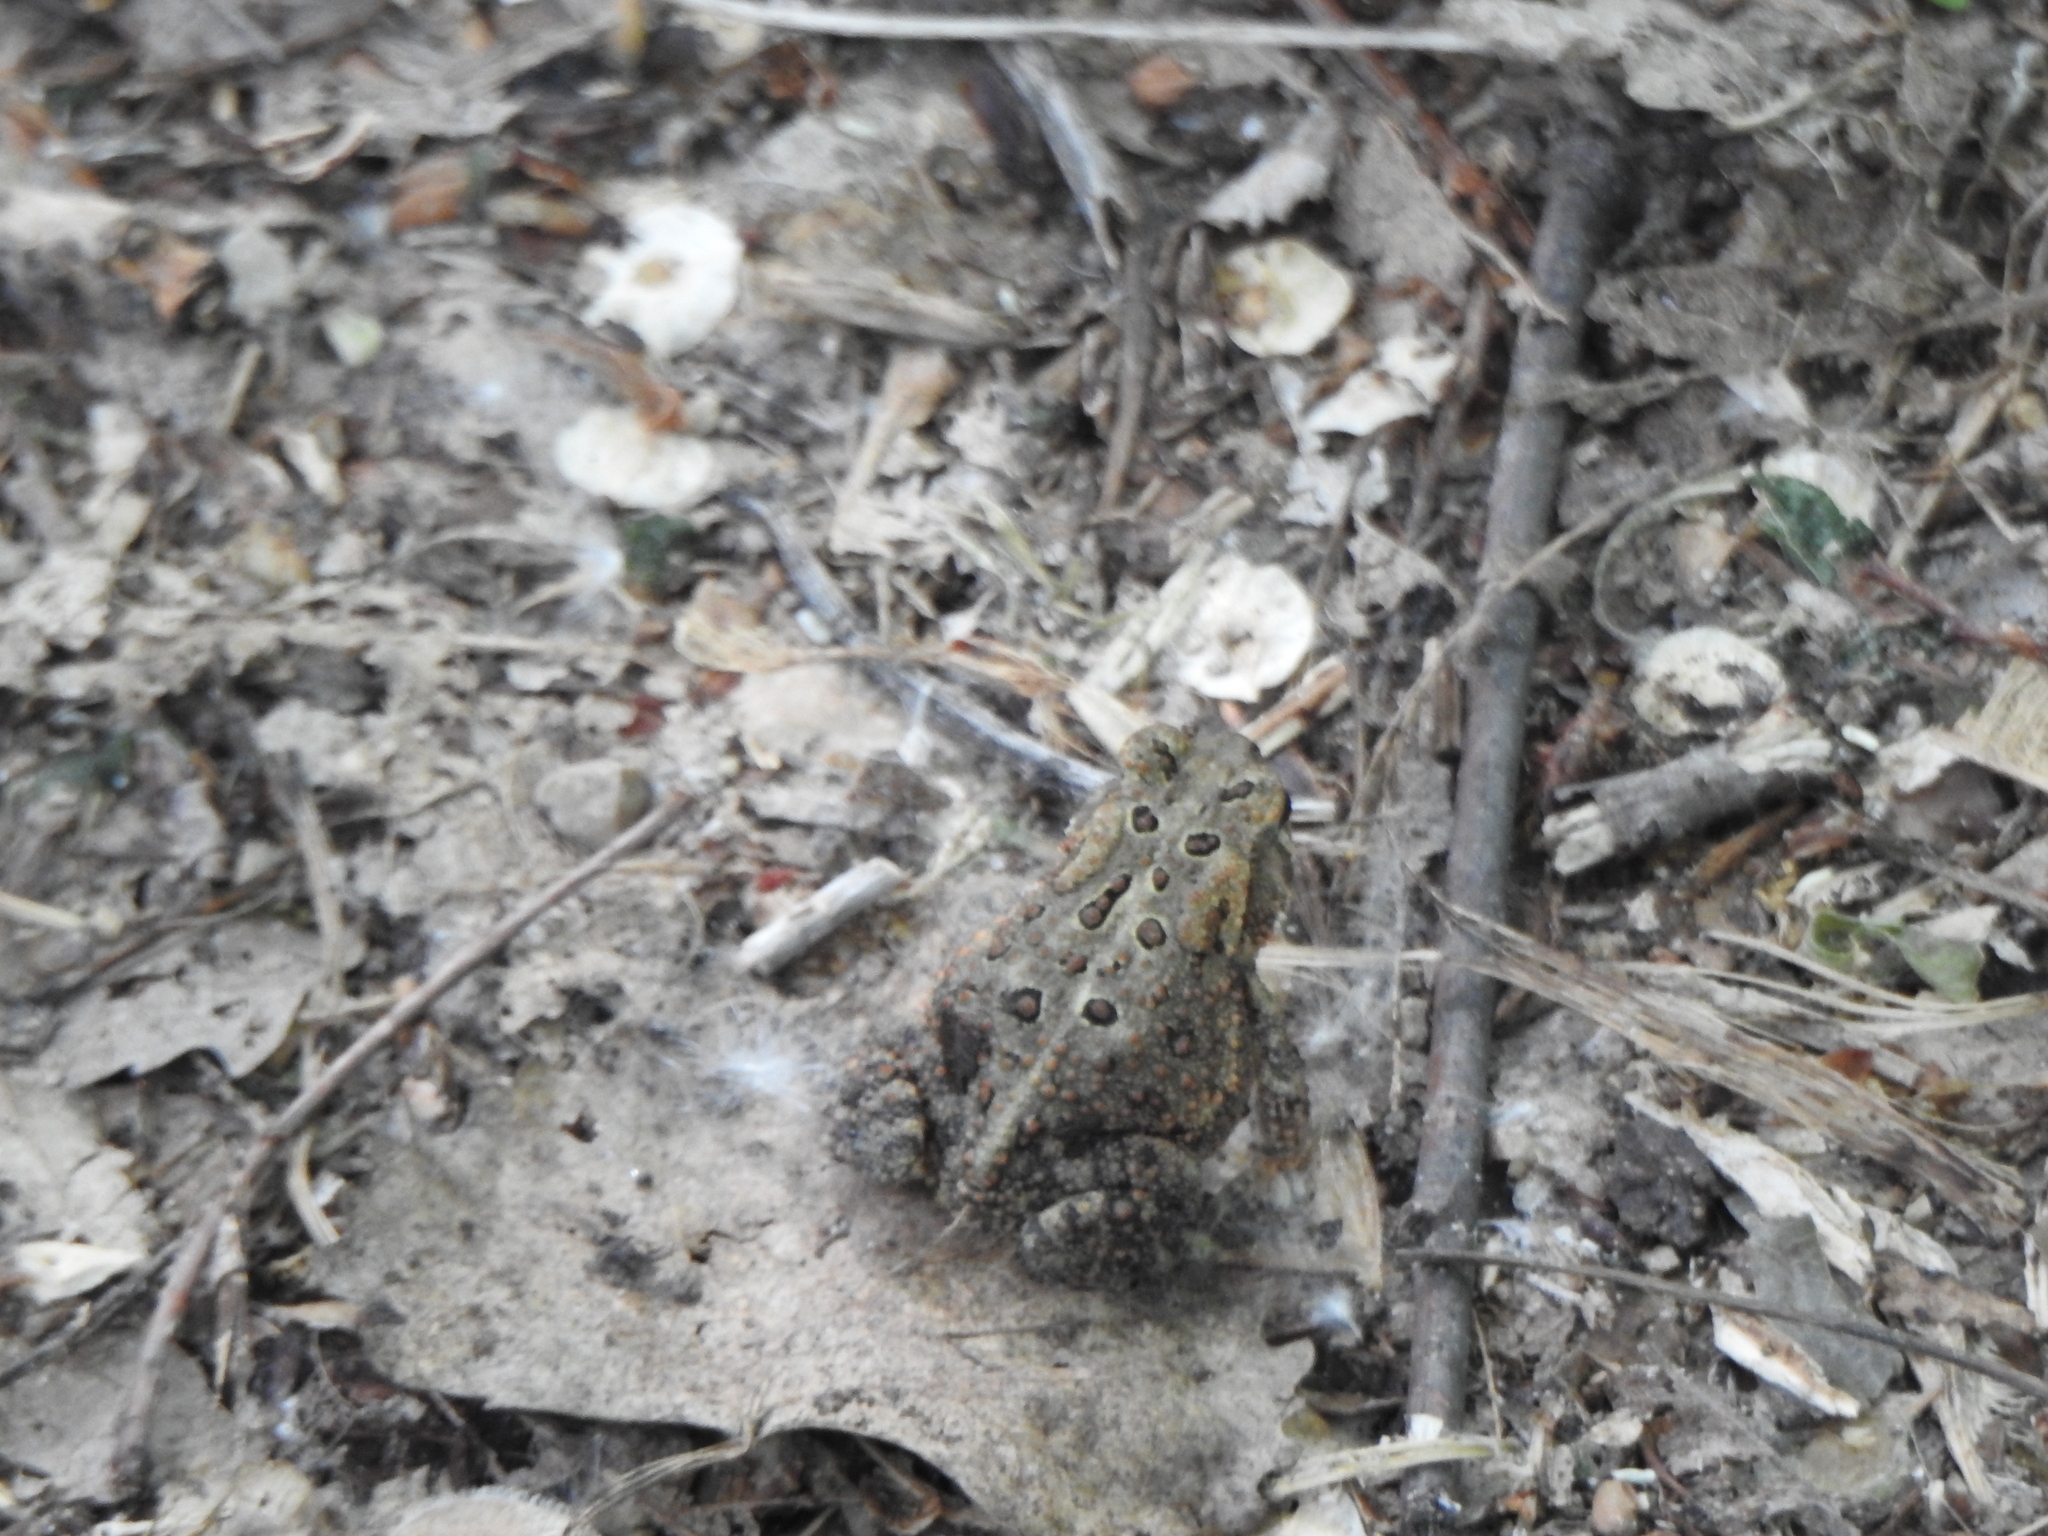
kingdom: Animalia
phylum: Chordata
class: Amphibia
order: Anura
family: Bufonidae
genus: Anaxyrus
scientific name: Anaxyrus americanus
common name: American toad
